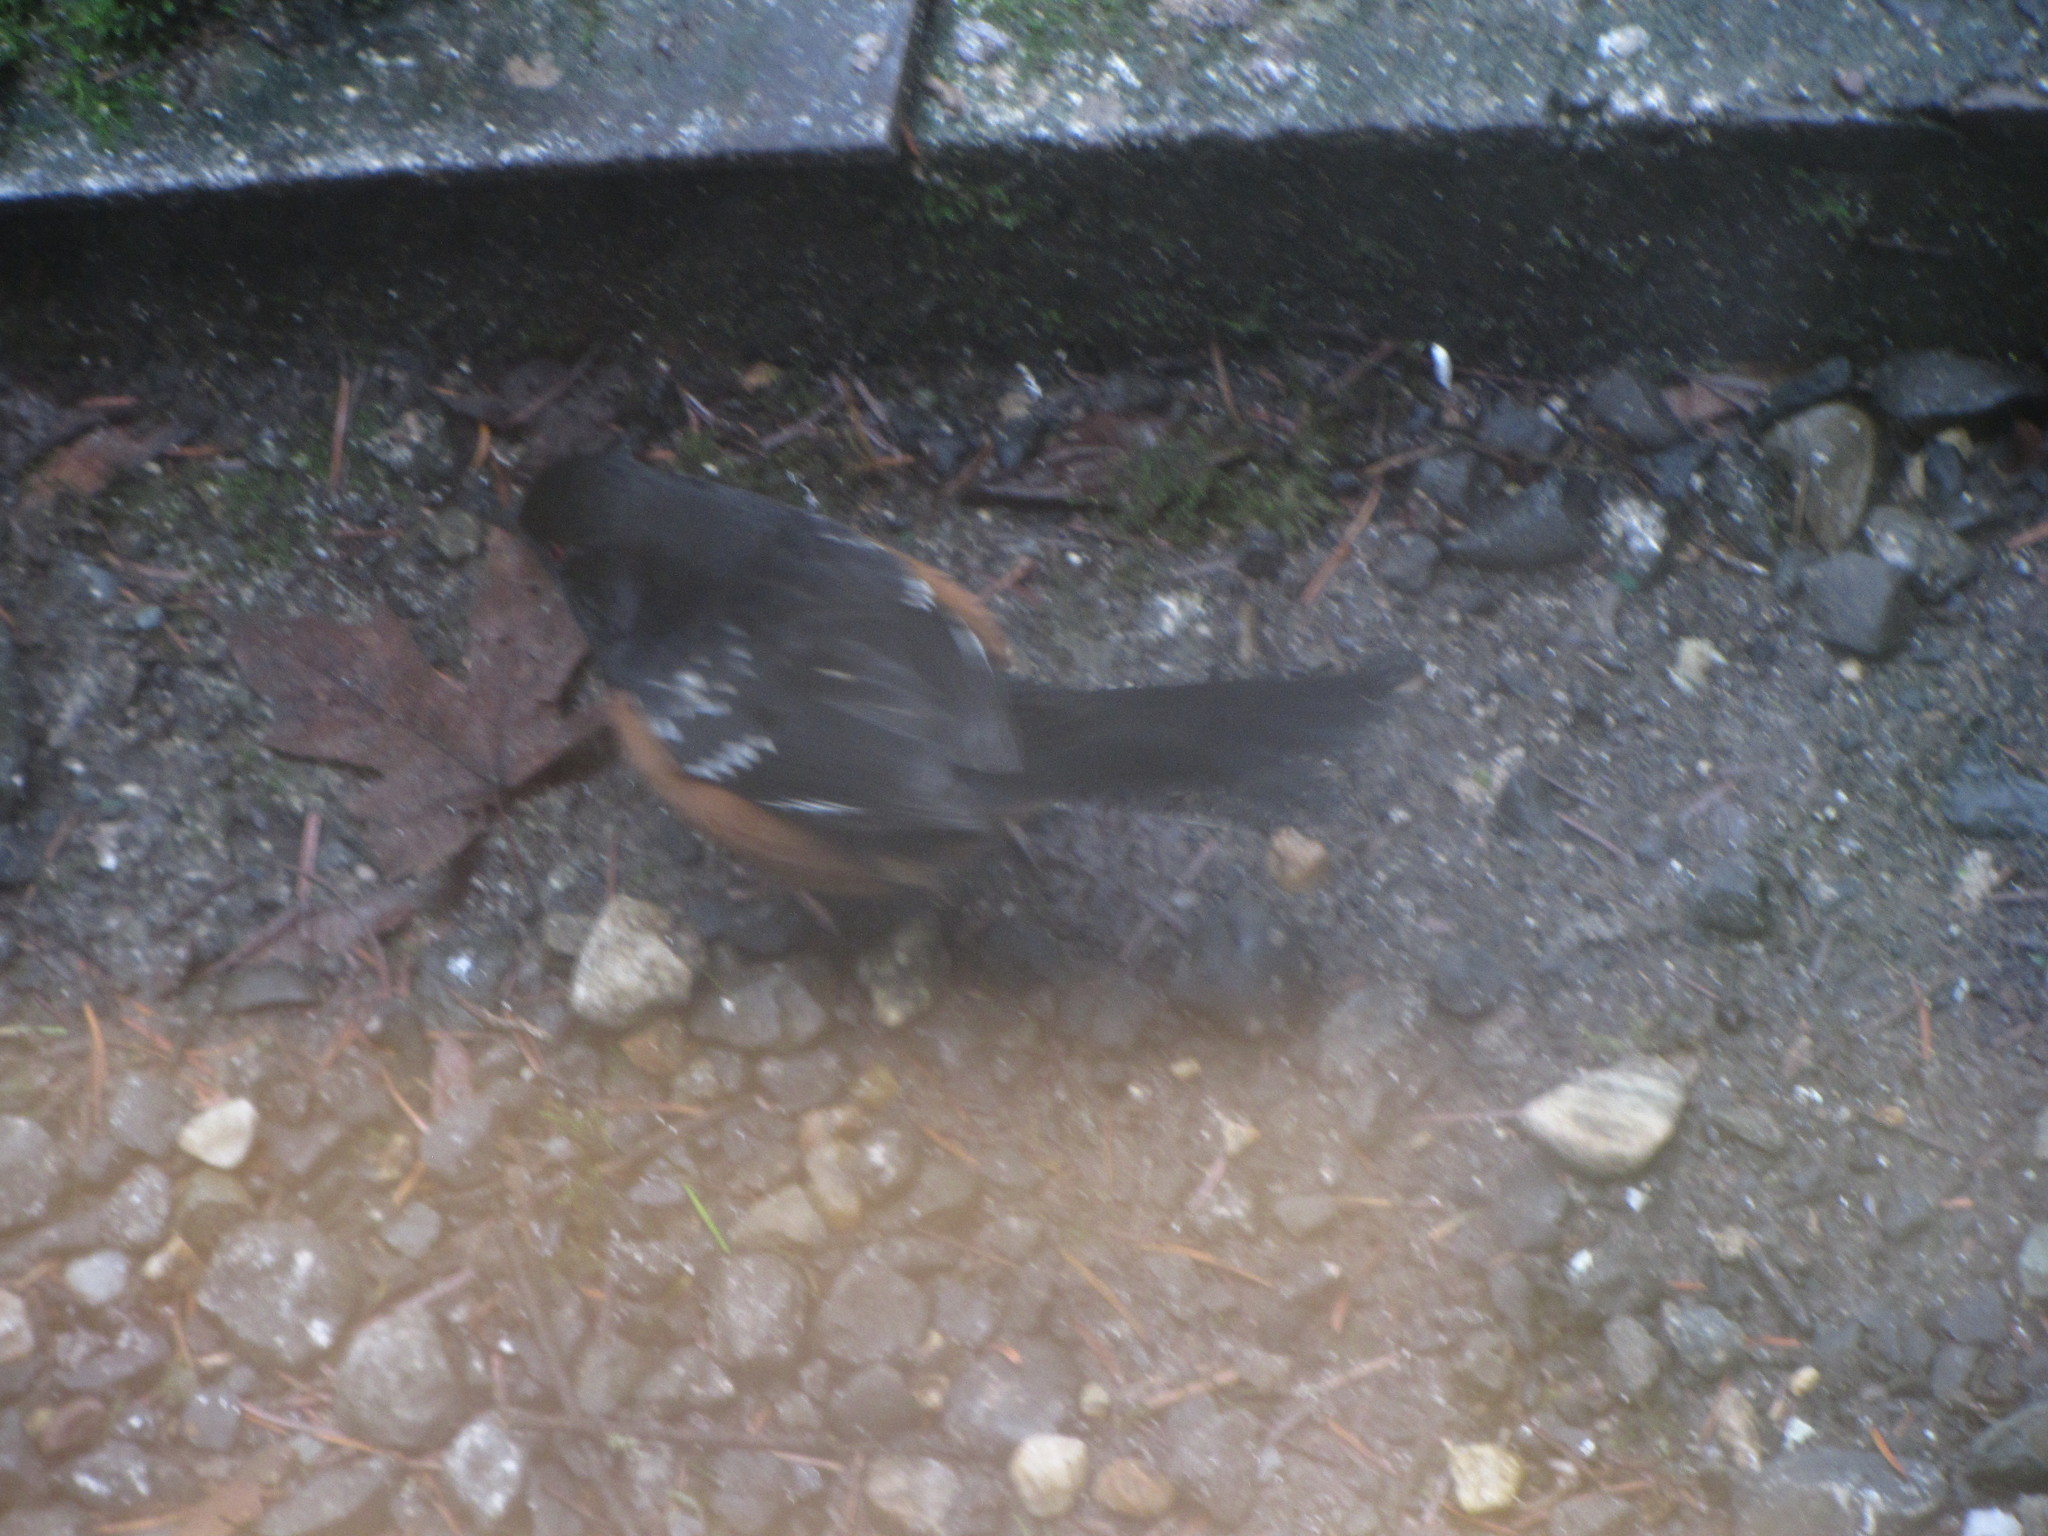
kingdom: Animalia
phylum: Chordata
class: Aves
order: Passeriformes
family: Passerellidae
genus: Pipilo
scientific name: Pipilo maculatus
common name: Spotted towhee
